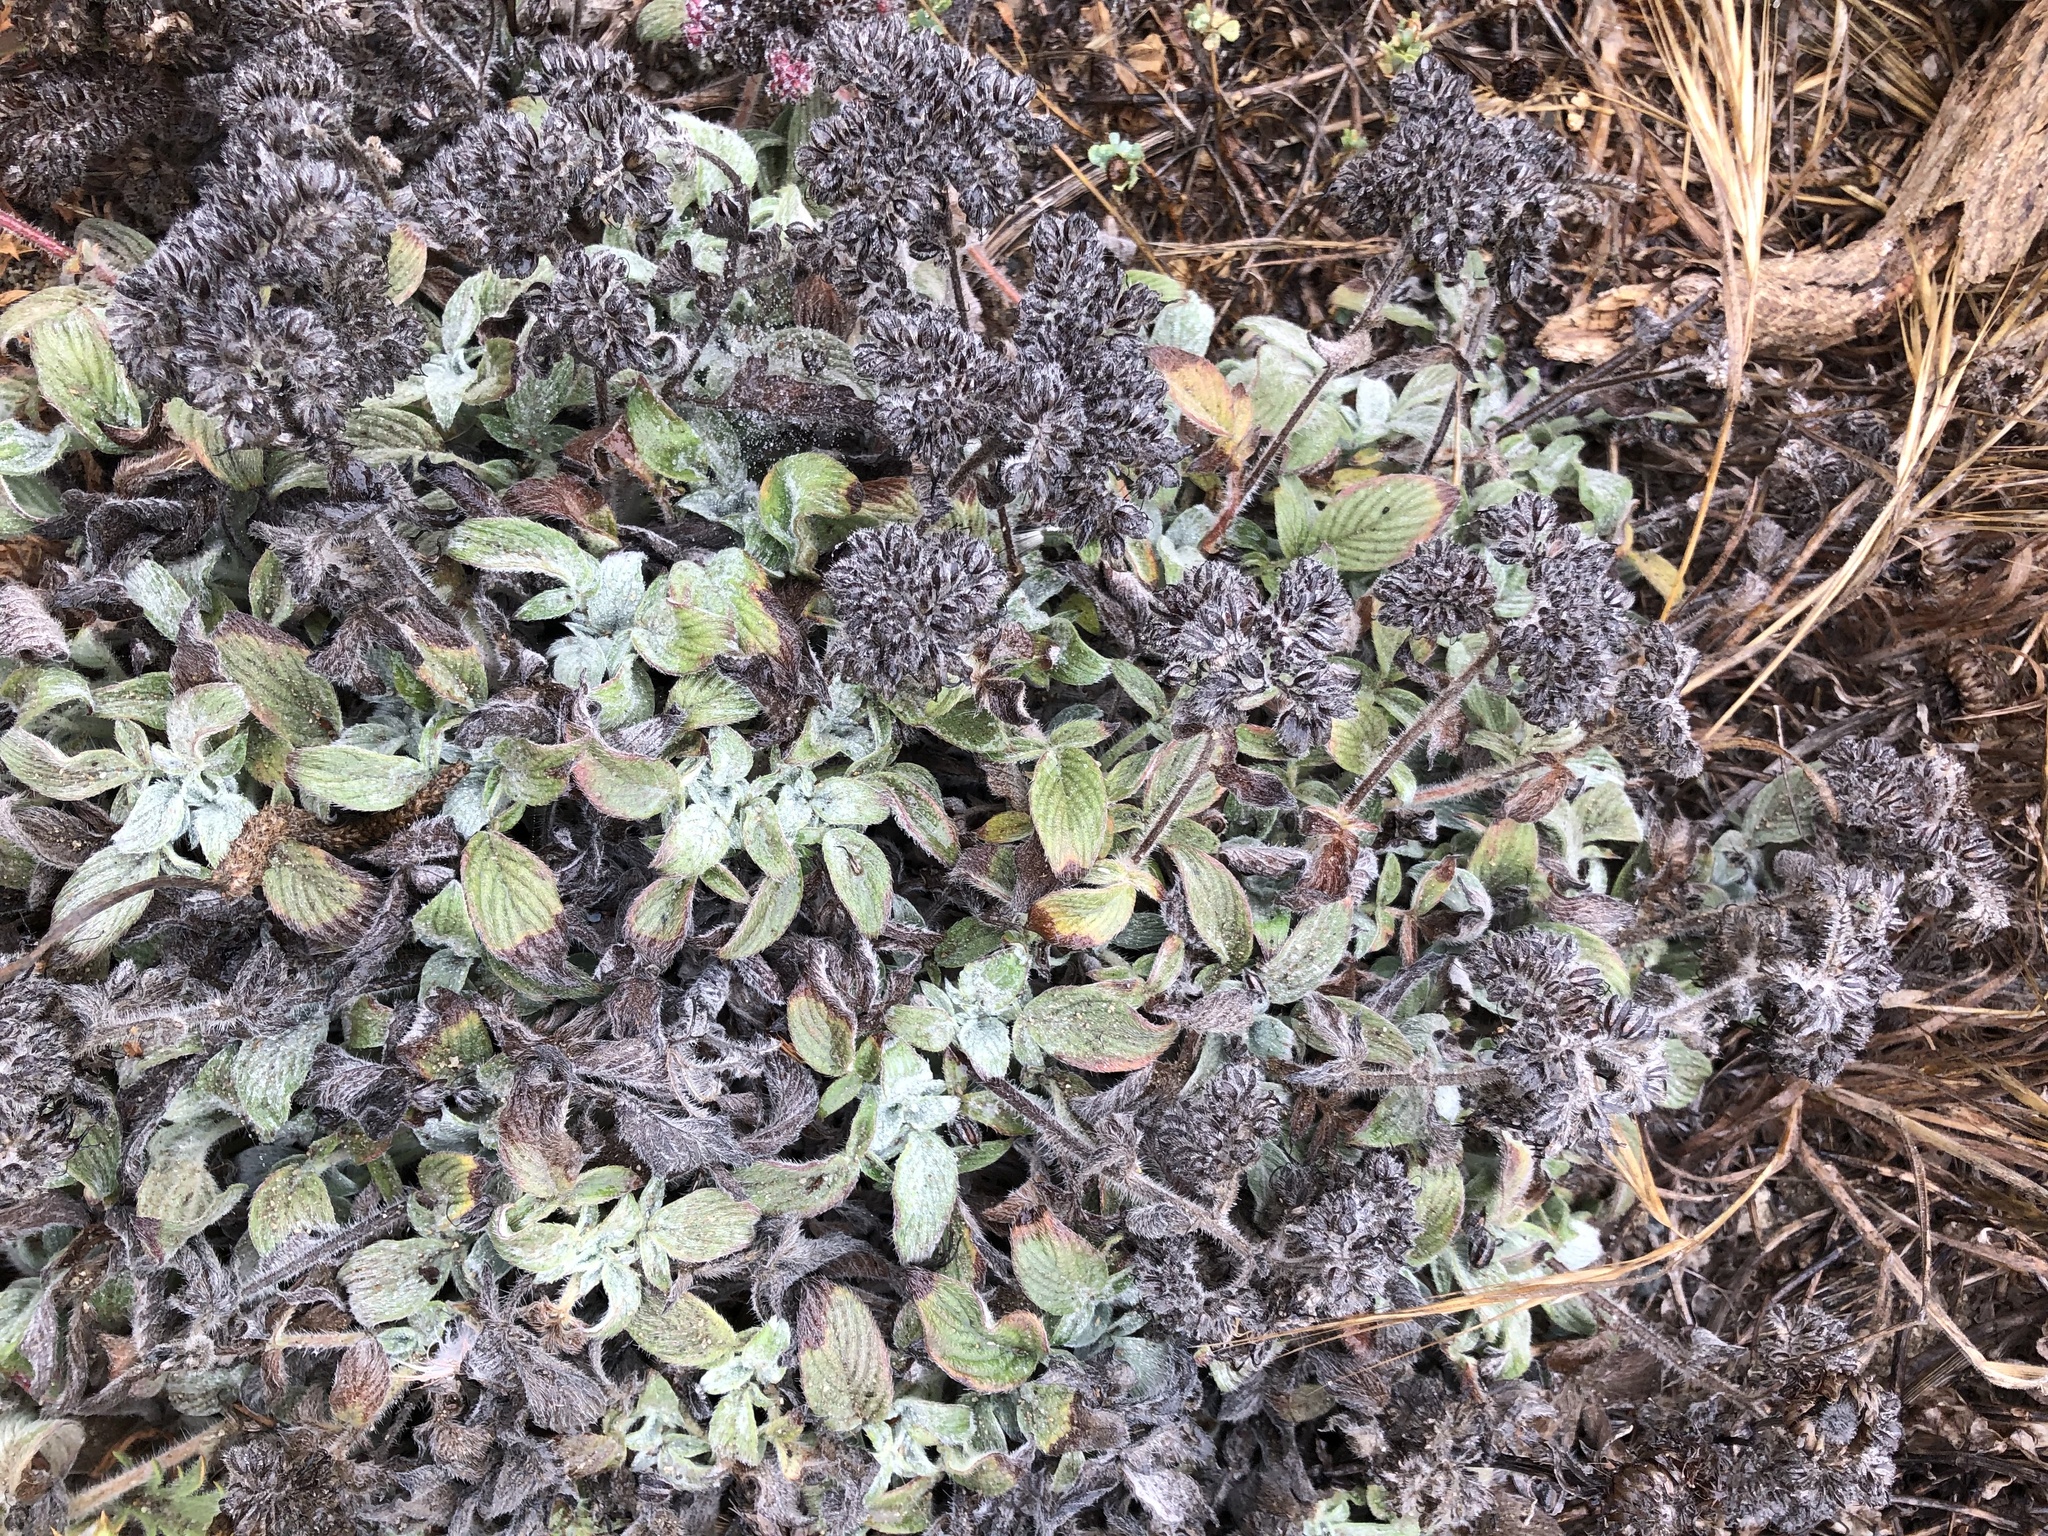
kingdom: Plantae
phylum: Tracheophyta
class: Magnoliopsida
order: Boraginales
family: Hydrophyllaceae
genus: Phacelia
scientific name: Phacelia californica
